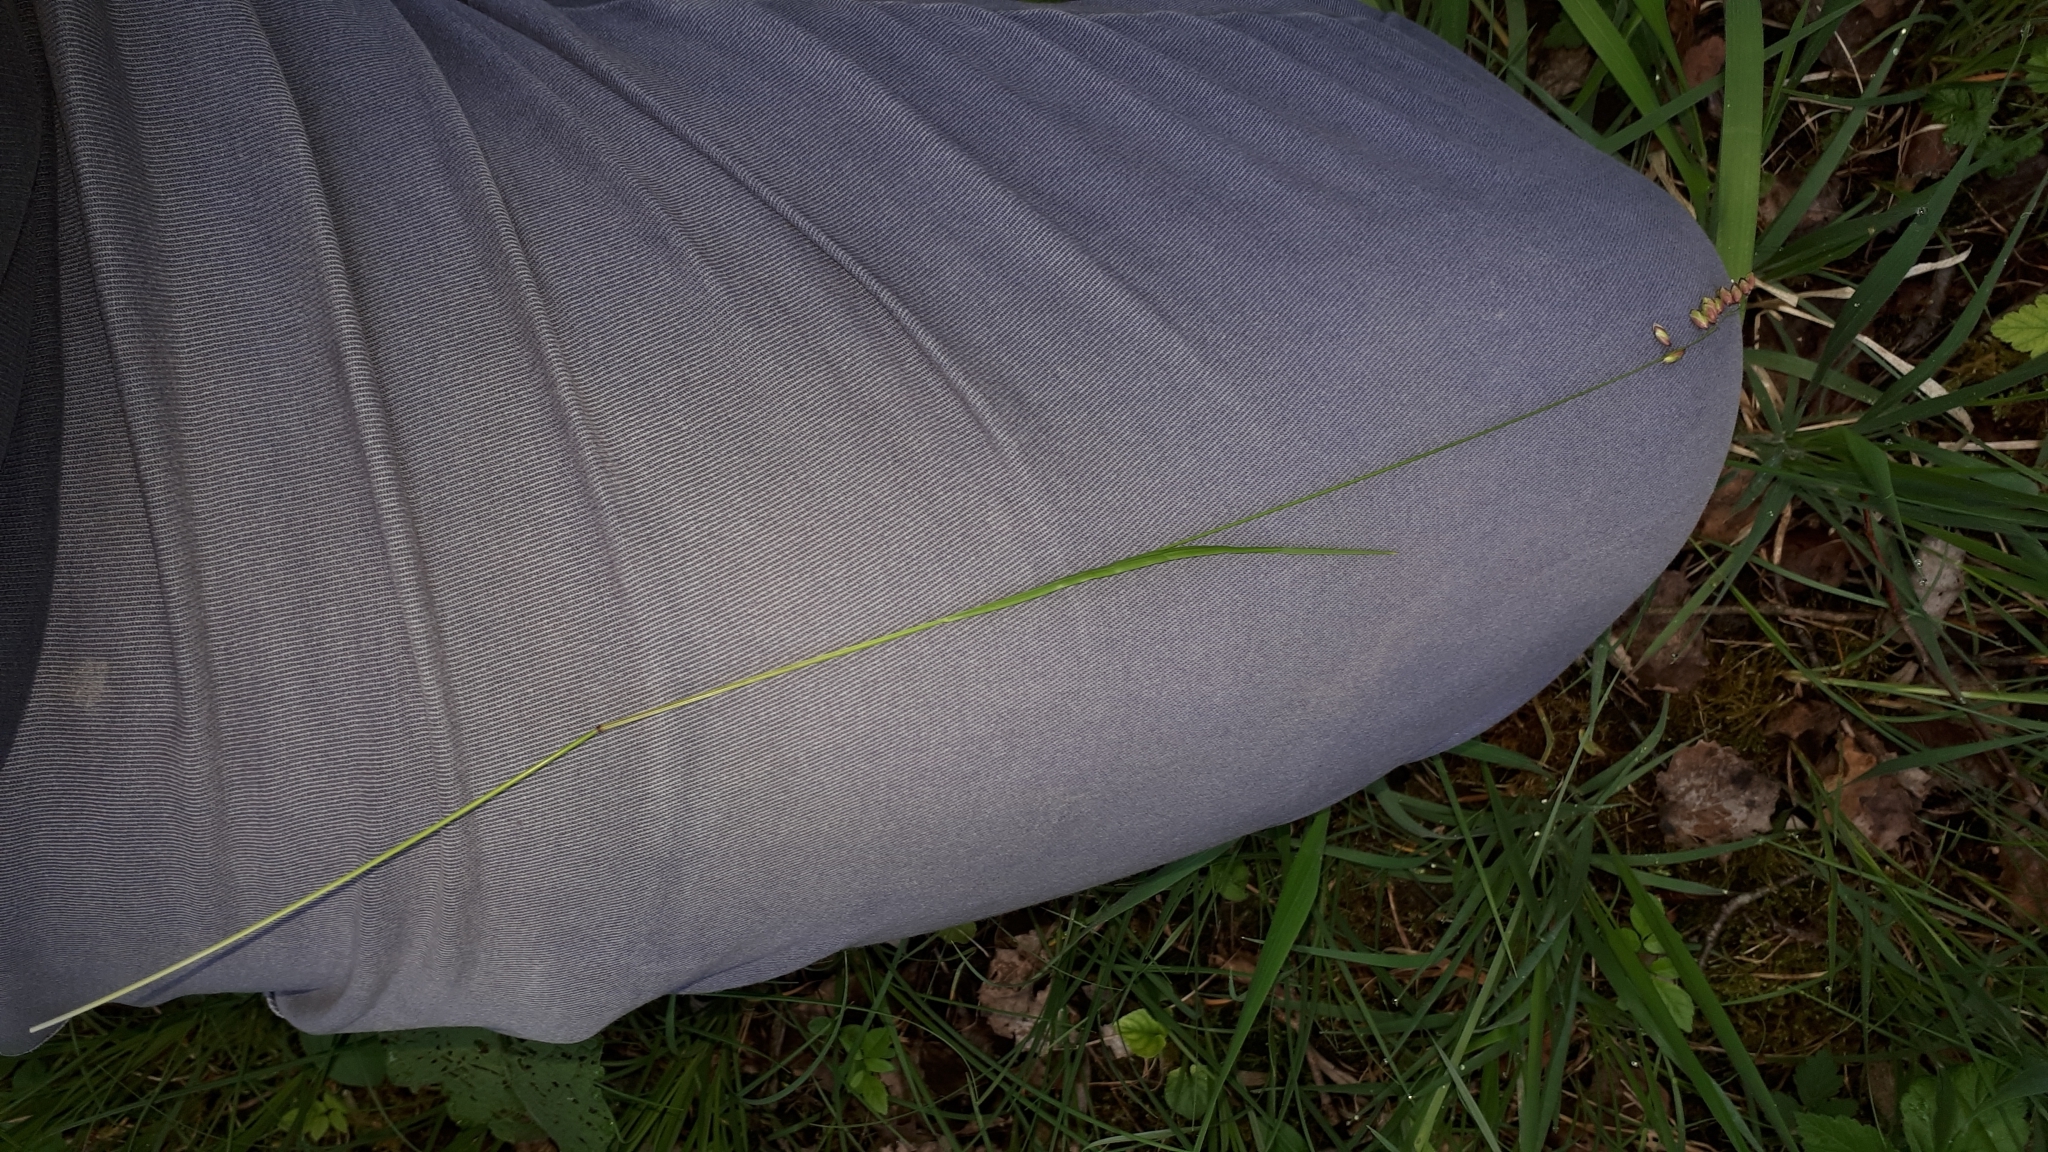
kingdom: Plantae
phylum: Tracheophyta
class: Liliopsida
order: Poales
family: Poaceae
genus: Melica
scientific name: Melica nutans
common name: Mountain melick
